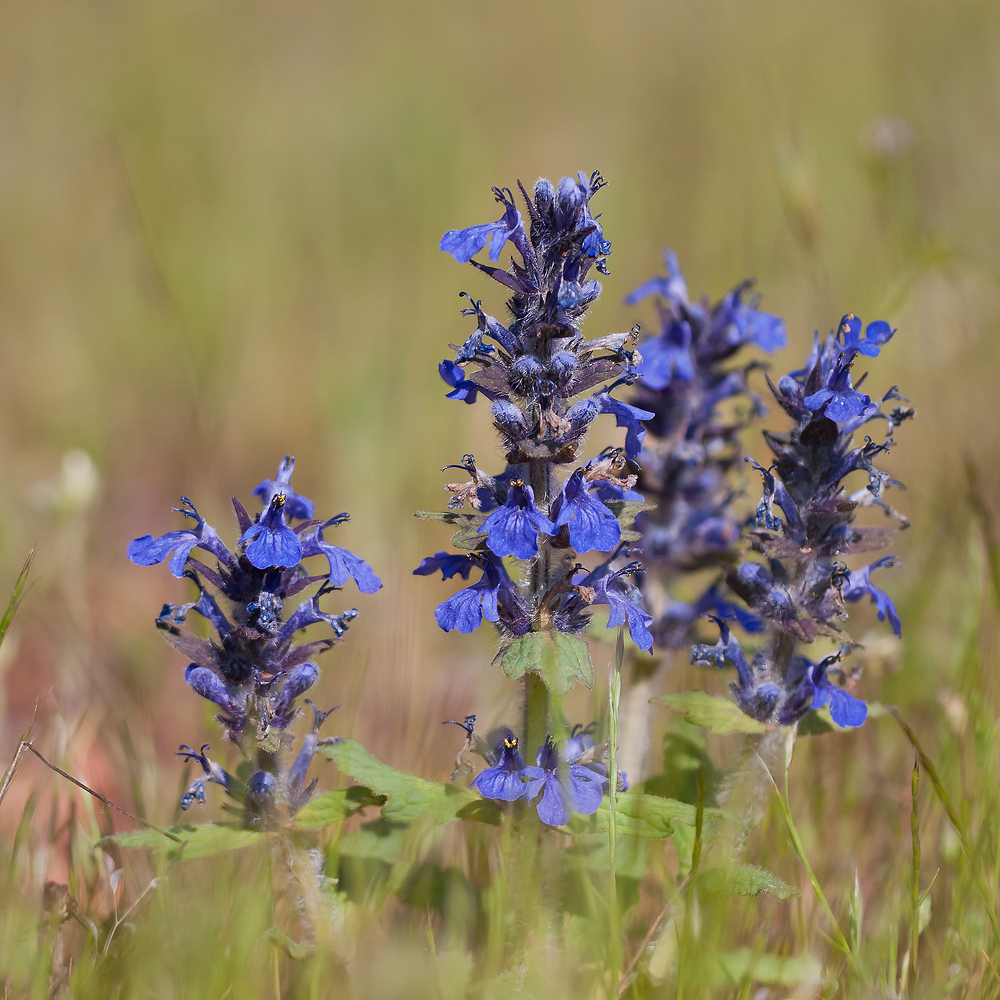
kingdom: Plantae
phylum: Tracheophyta
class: Magnoliopsida
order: Lamiales
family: Lamiaceae
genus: Ajuga
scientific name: Ajuga reptans
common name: Bugle
